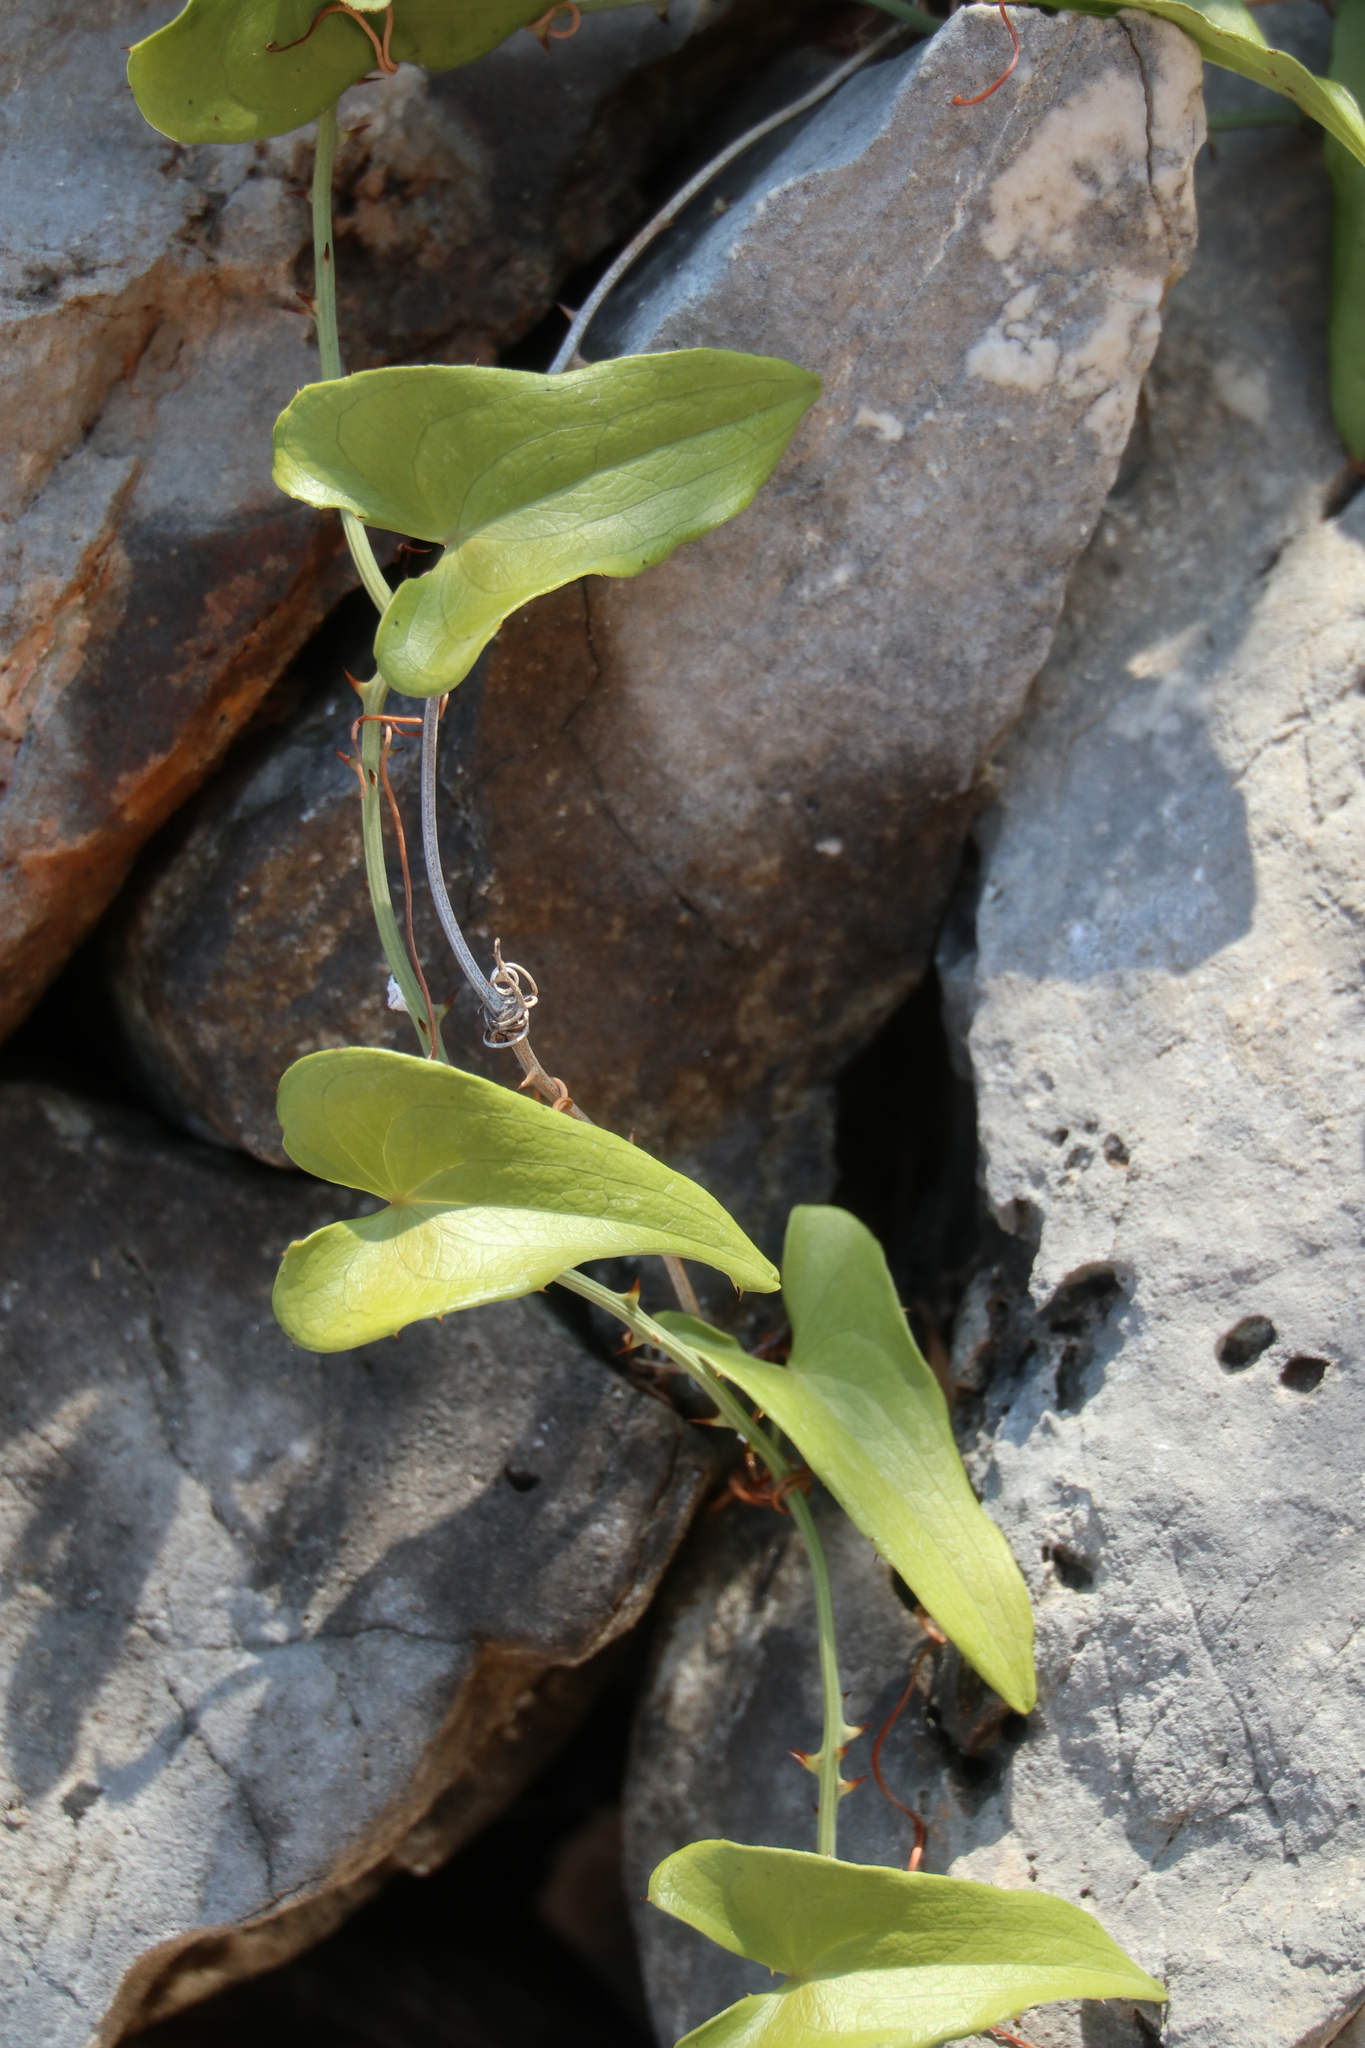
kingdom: Plantae
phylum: Tracheophyta
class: Liliopsida
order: Liliales
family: Smilacaceae
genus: Smilax
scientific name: Smilax aspera
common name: Common smilax
